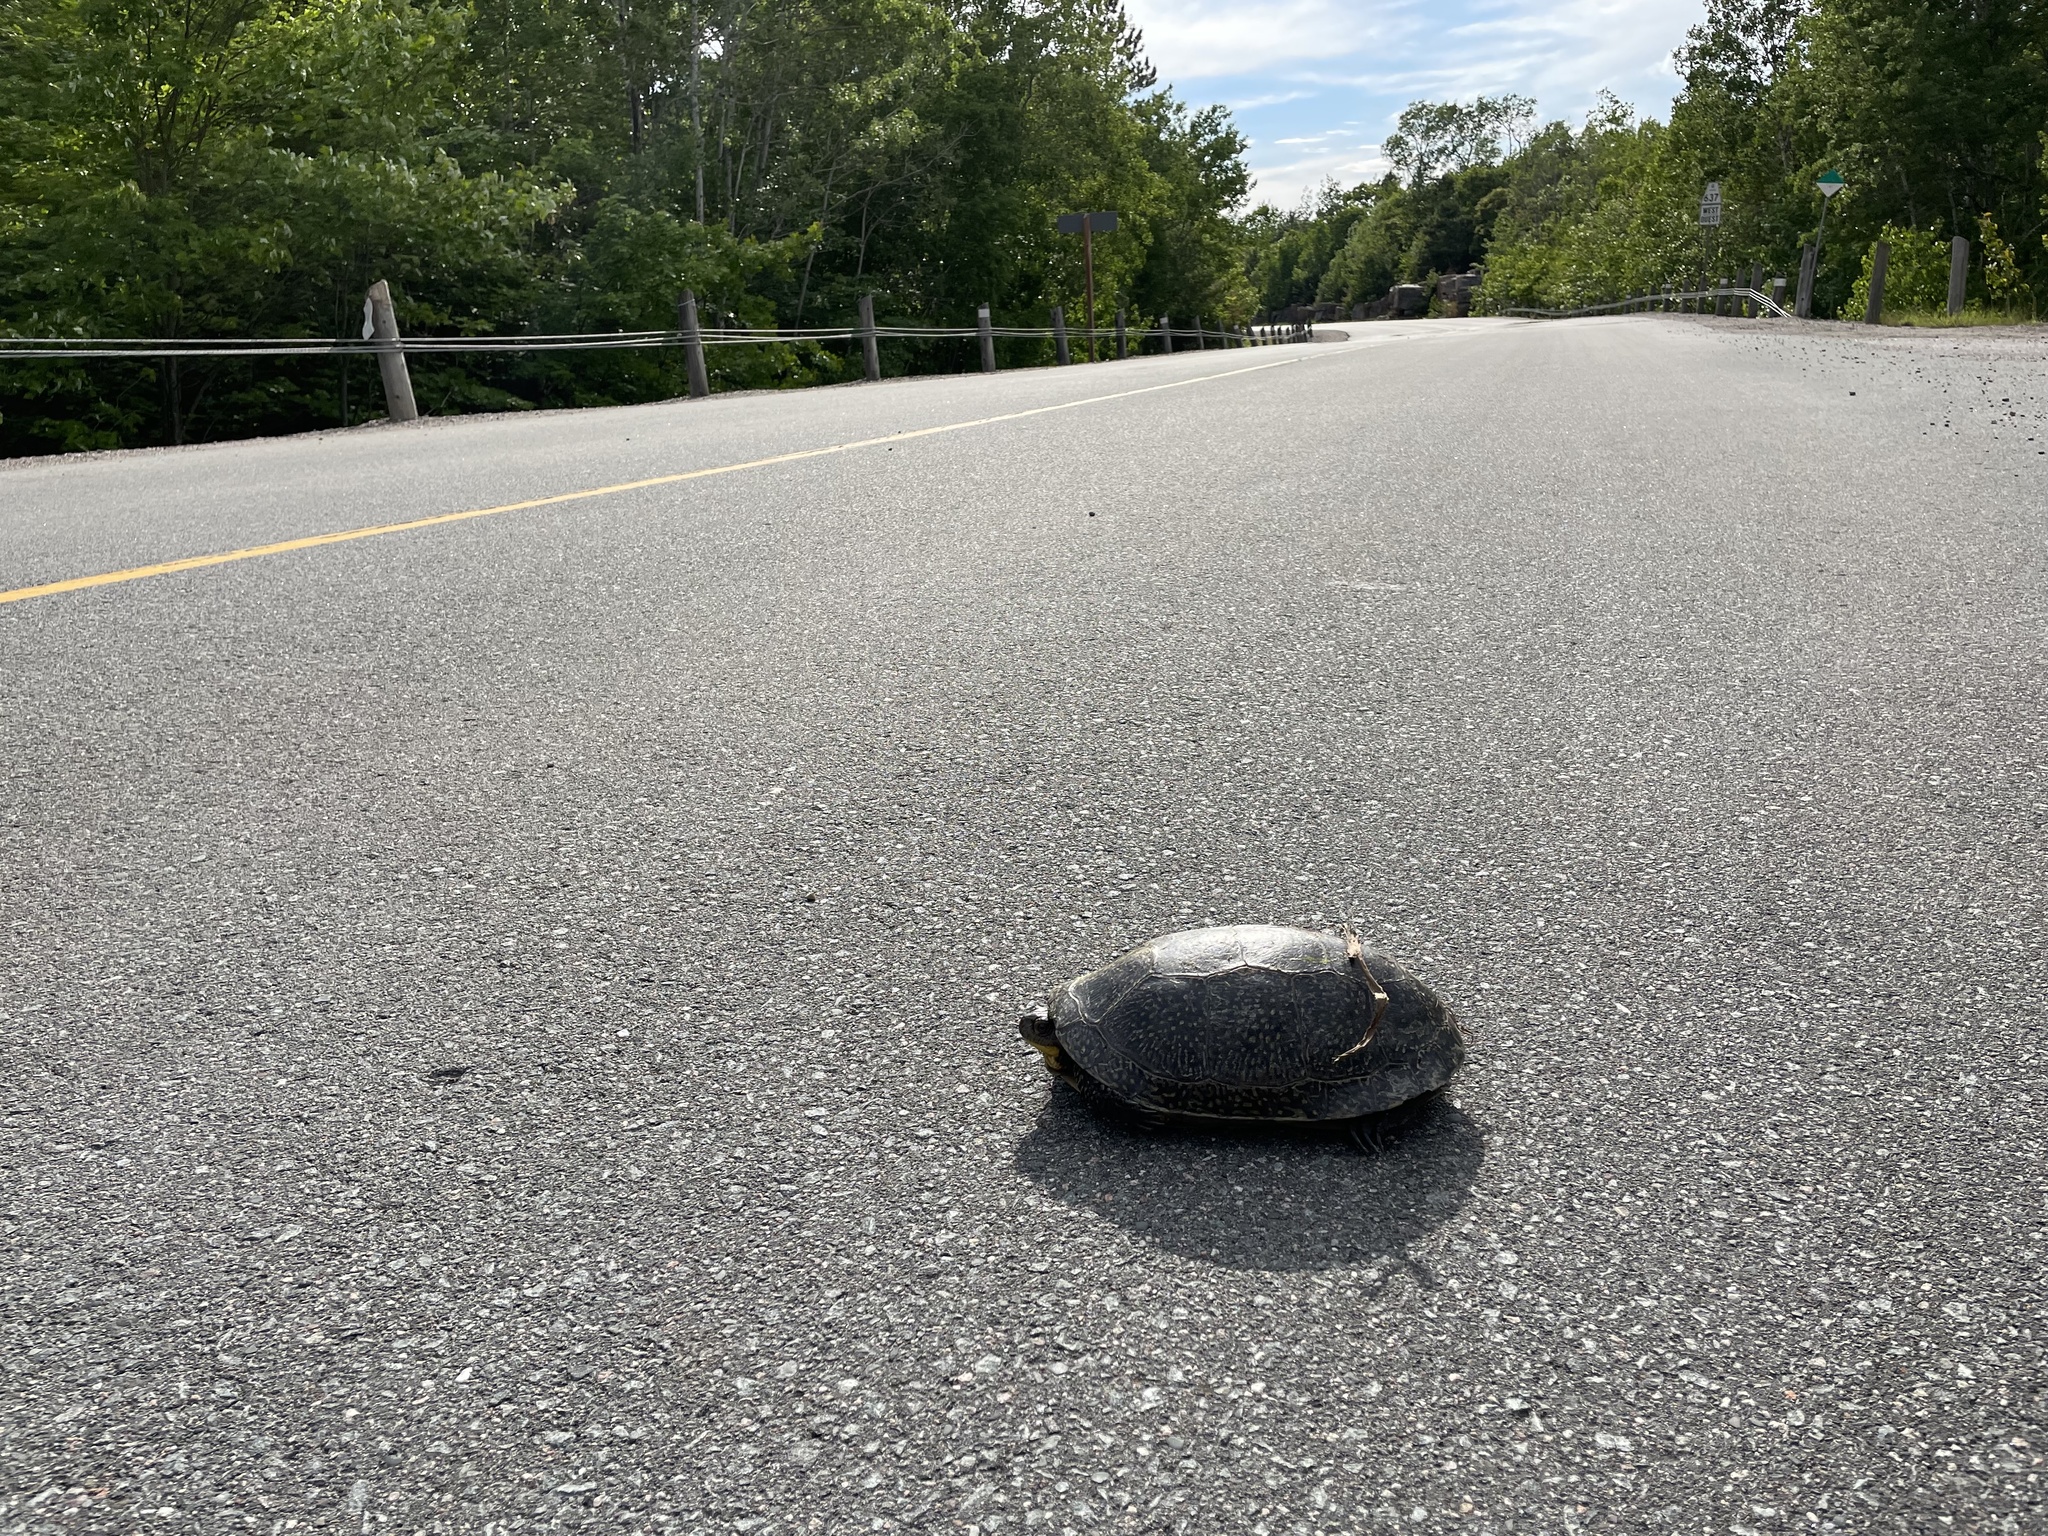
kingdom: Animalia
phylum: Chordata
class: Testudines
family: Emydidae
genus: Emys
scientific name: Emys blandingii
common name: Blanding's turtle
